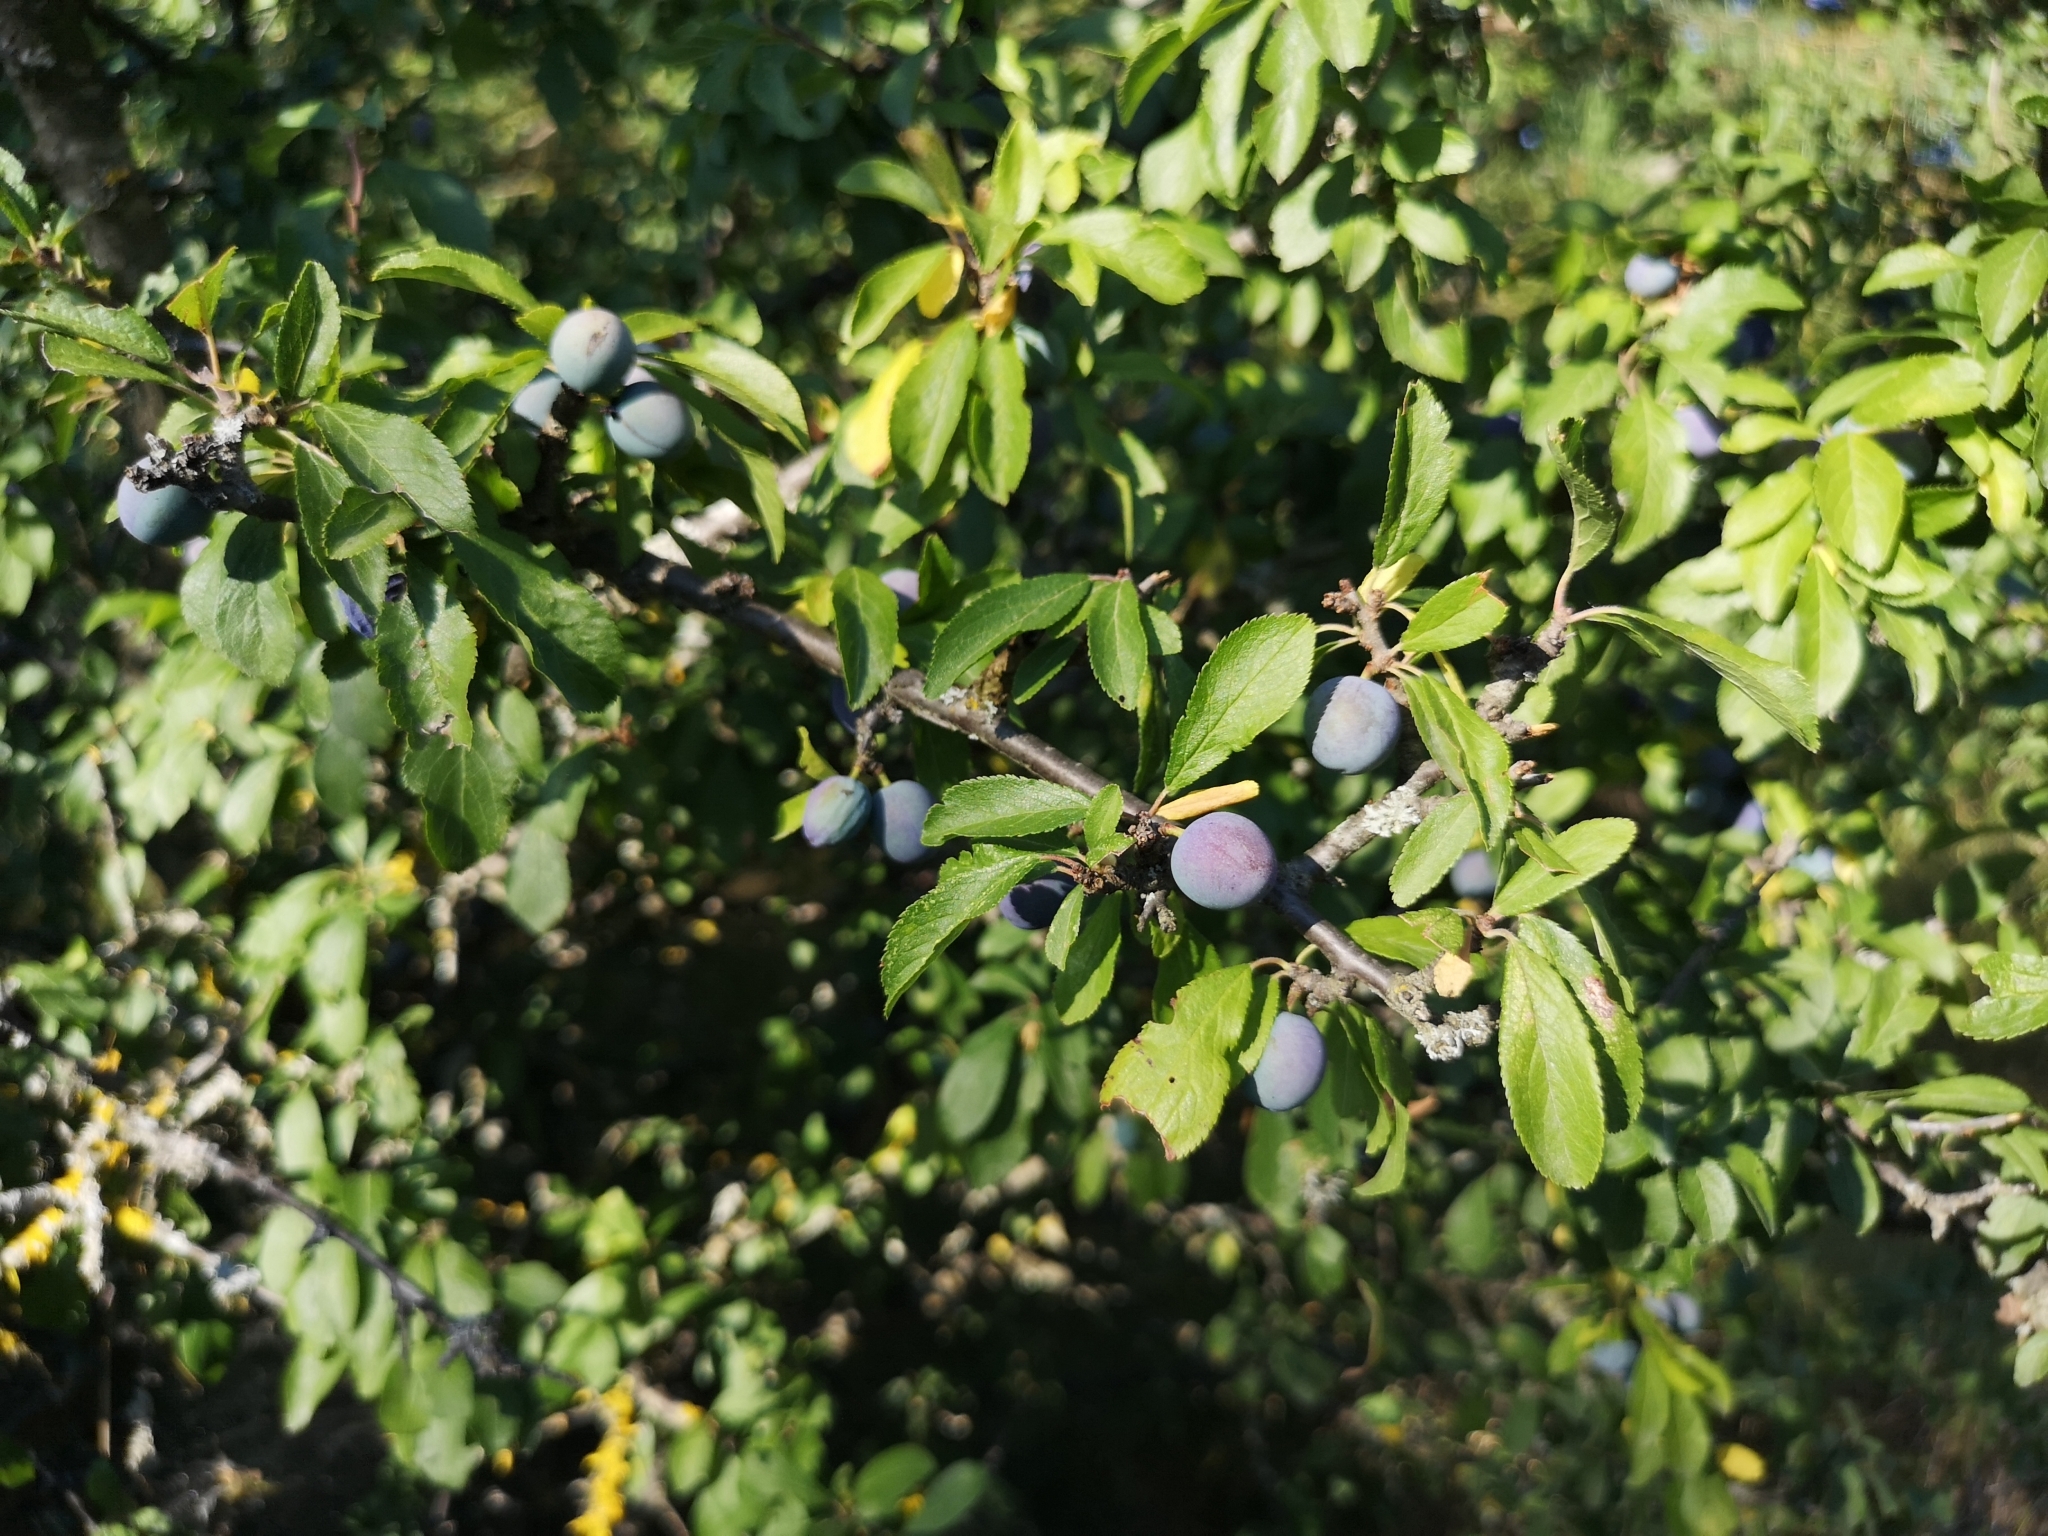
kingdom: Plantae
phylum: Tracheophyta
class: Magnoliopsida
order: Rosales
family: Rosaceae
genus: Prunus
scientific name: Prunus spinosa
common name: Blackthorn
